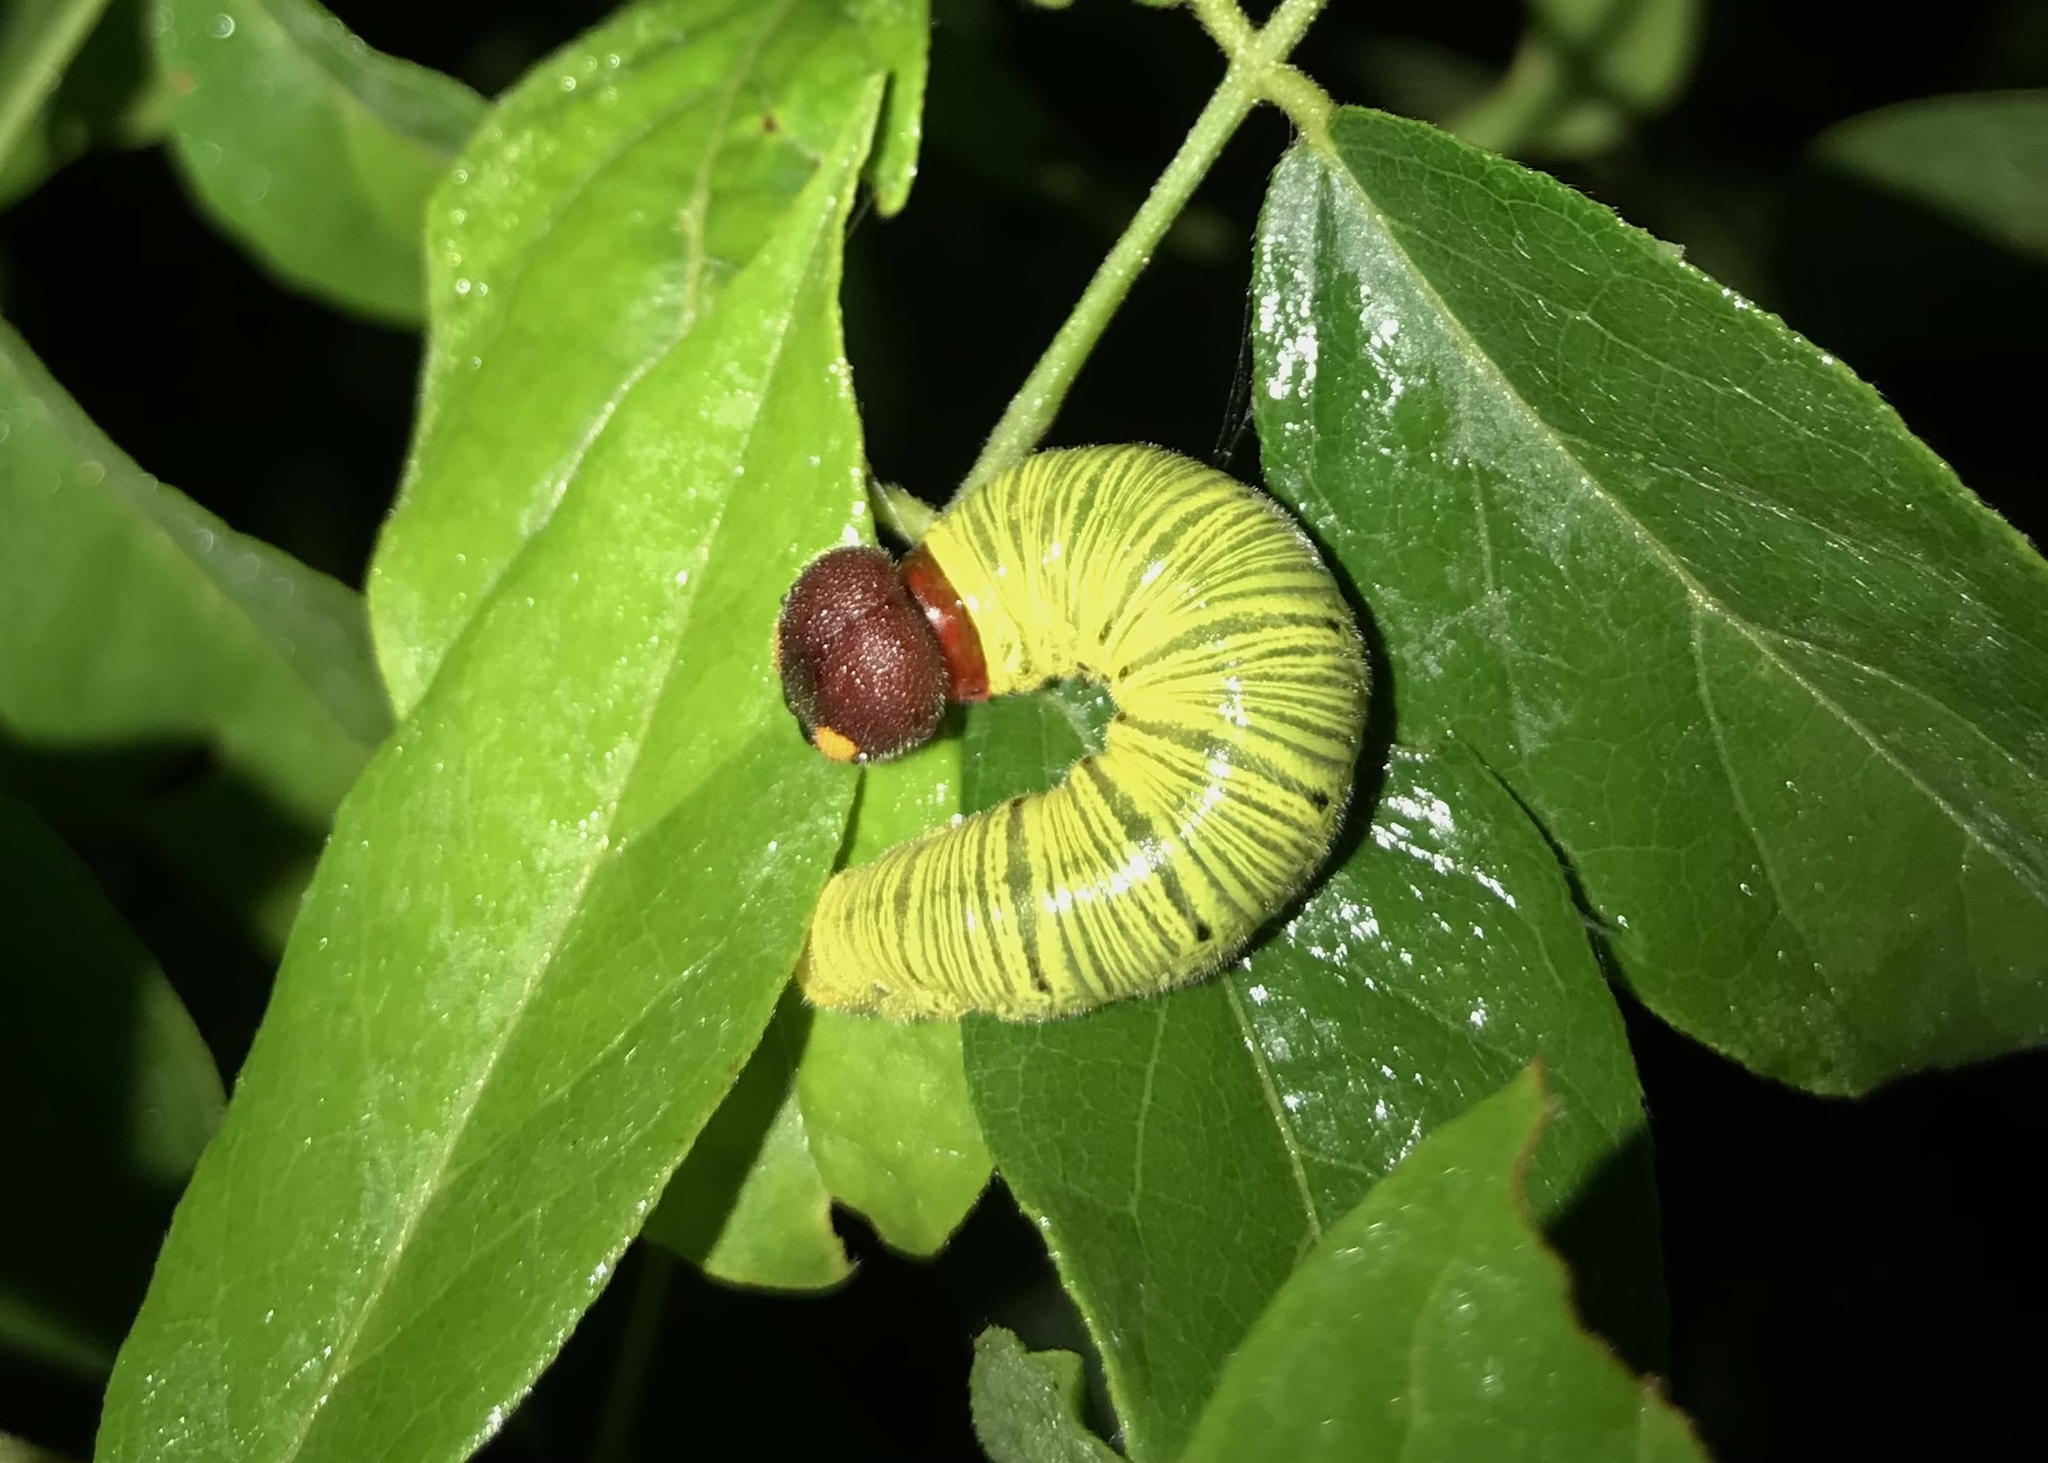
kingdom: Animalia
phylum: Arthropoda
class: Insecta
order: Lepidoptera
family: Hesperiidae
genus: Epargyreus
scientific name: Epargyreus clarus
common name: Silver-spotted skipper
